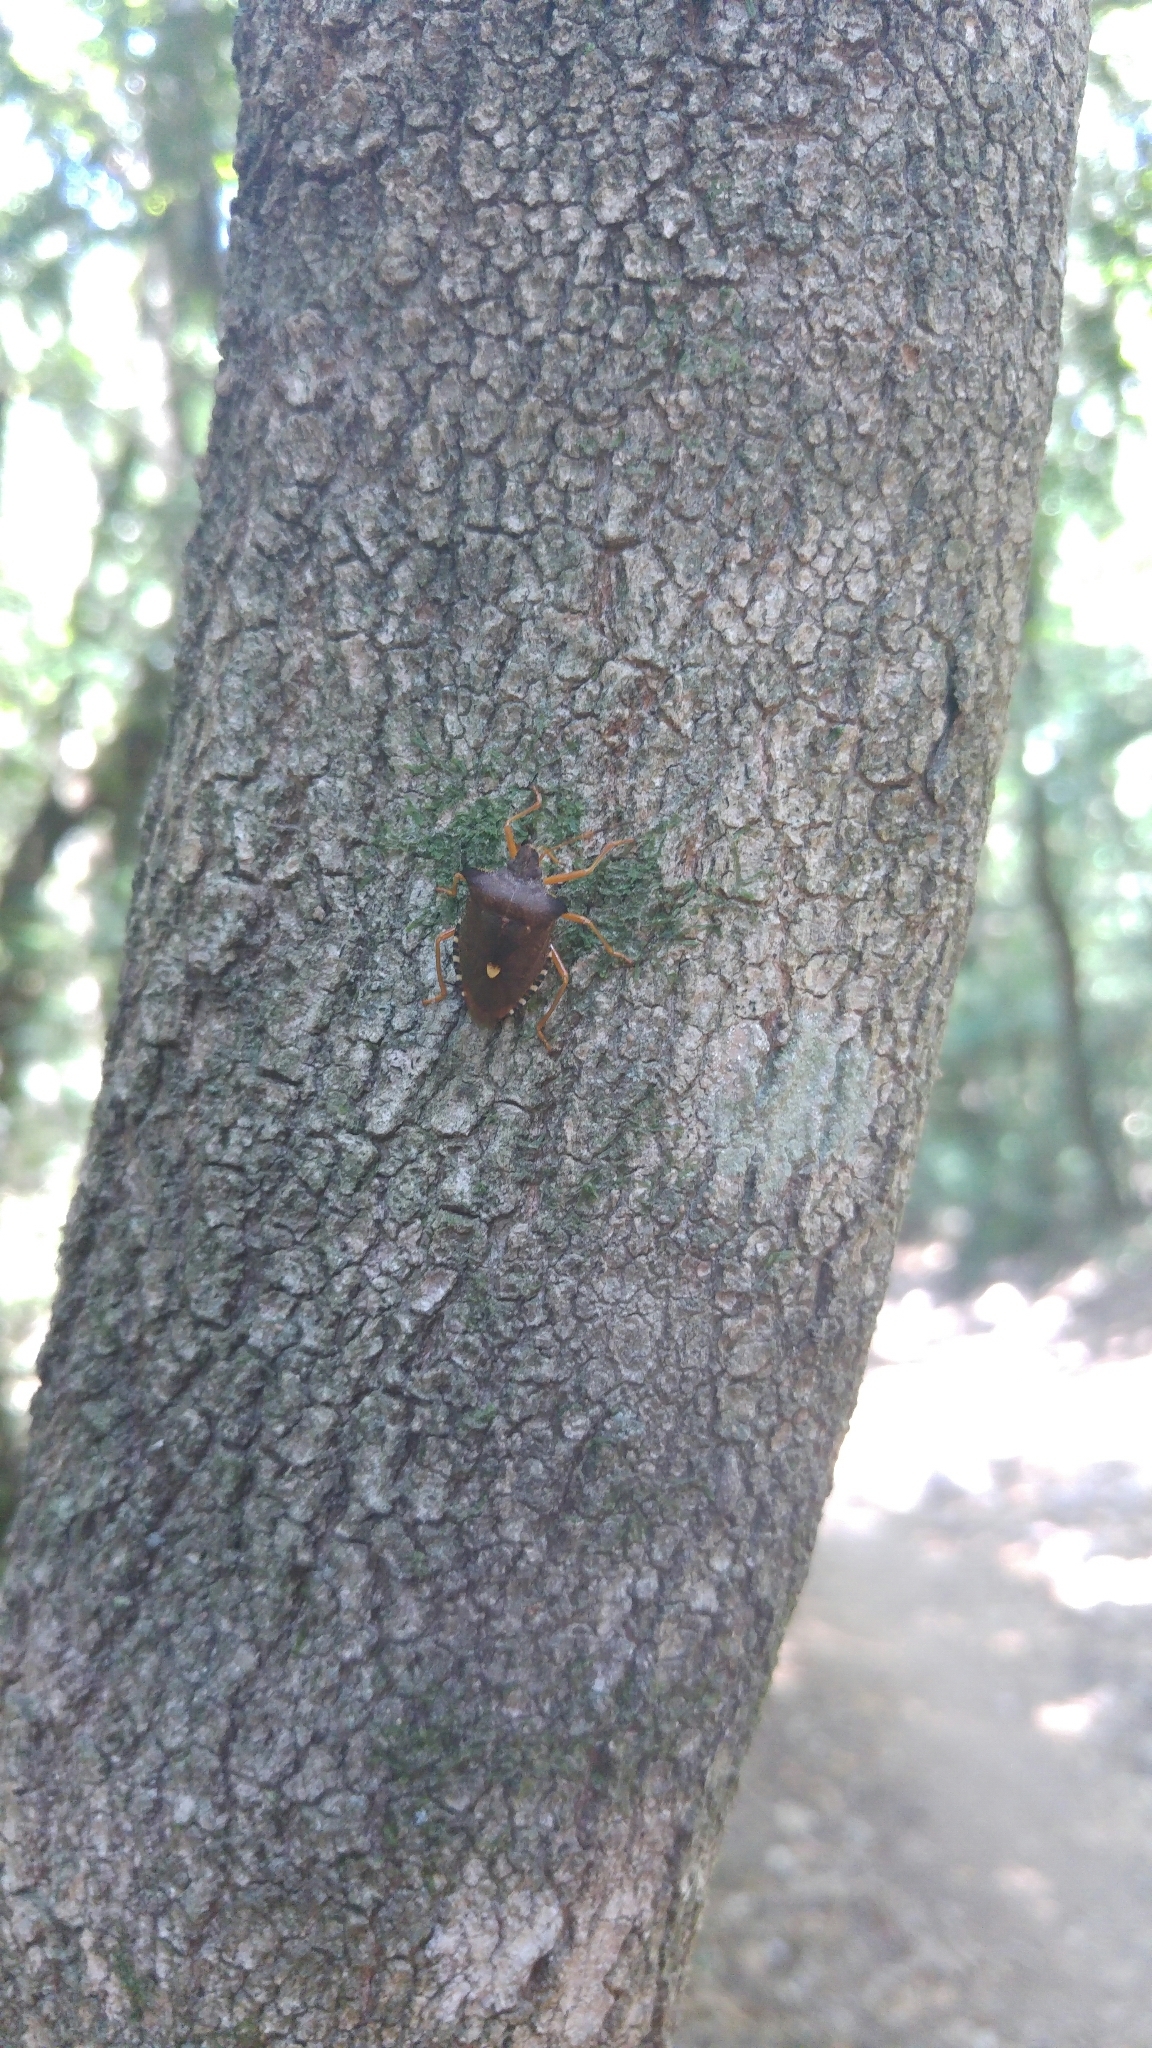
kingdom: Animalia
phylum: Arthropoda
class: Insecta
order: Hemiptera
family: Pentatomidae
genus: Pentatoma
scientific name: Pentatoma rufipes
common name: Forest bug
